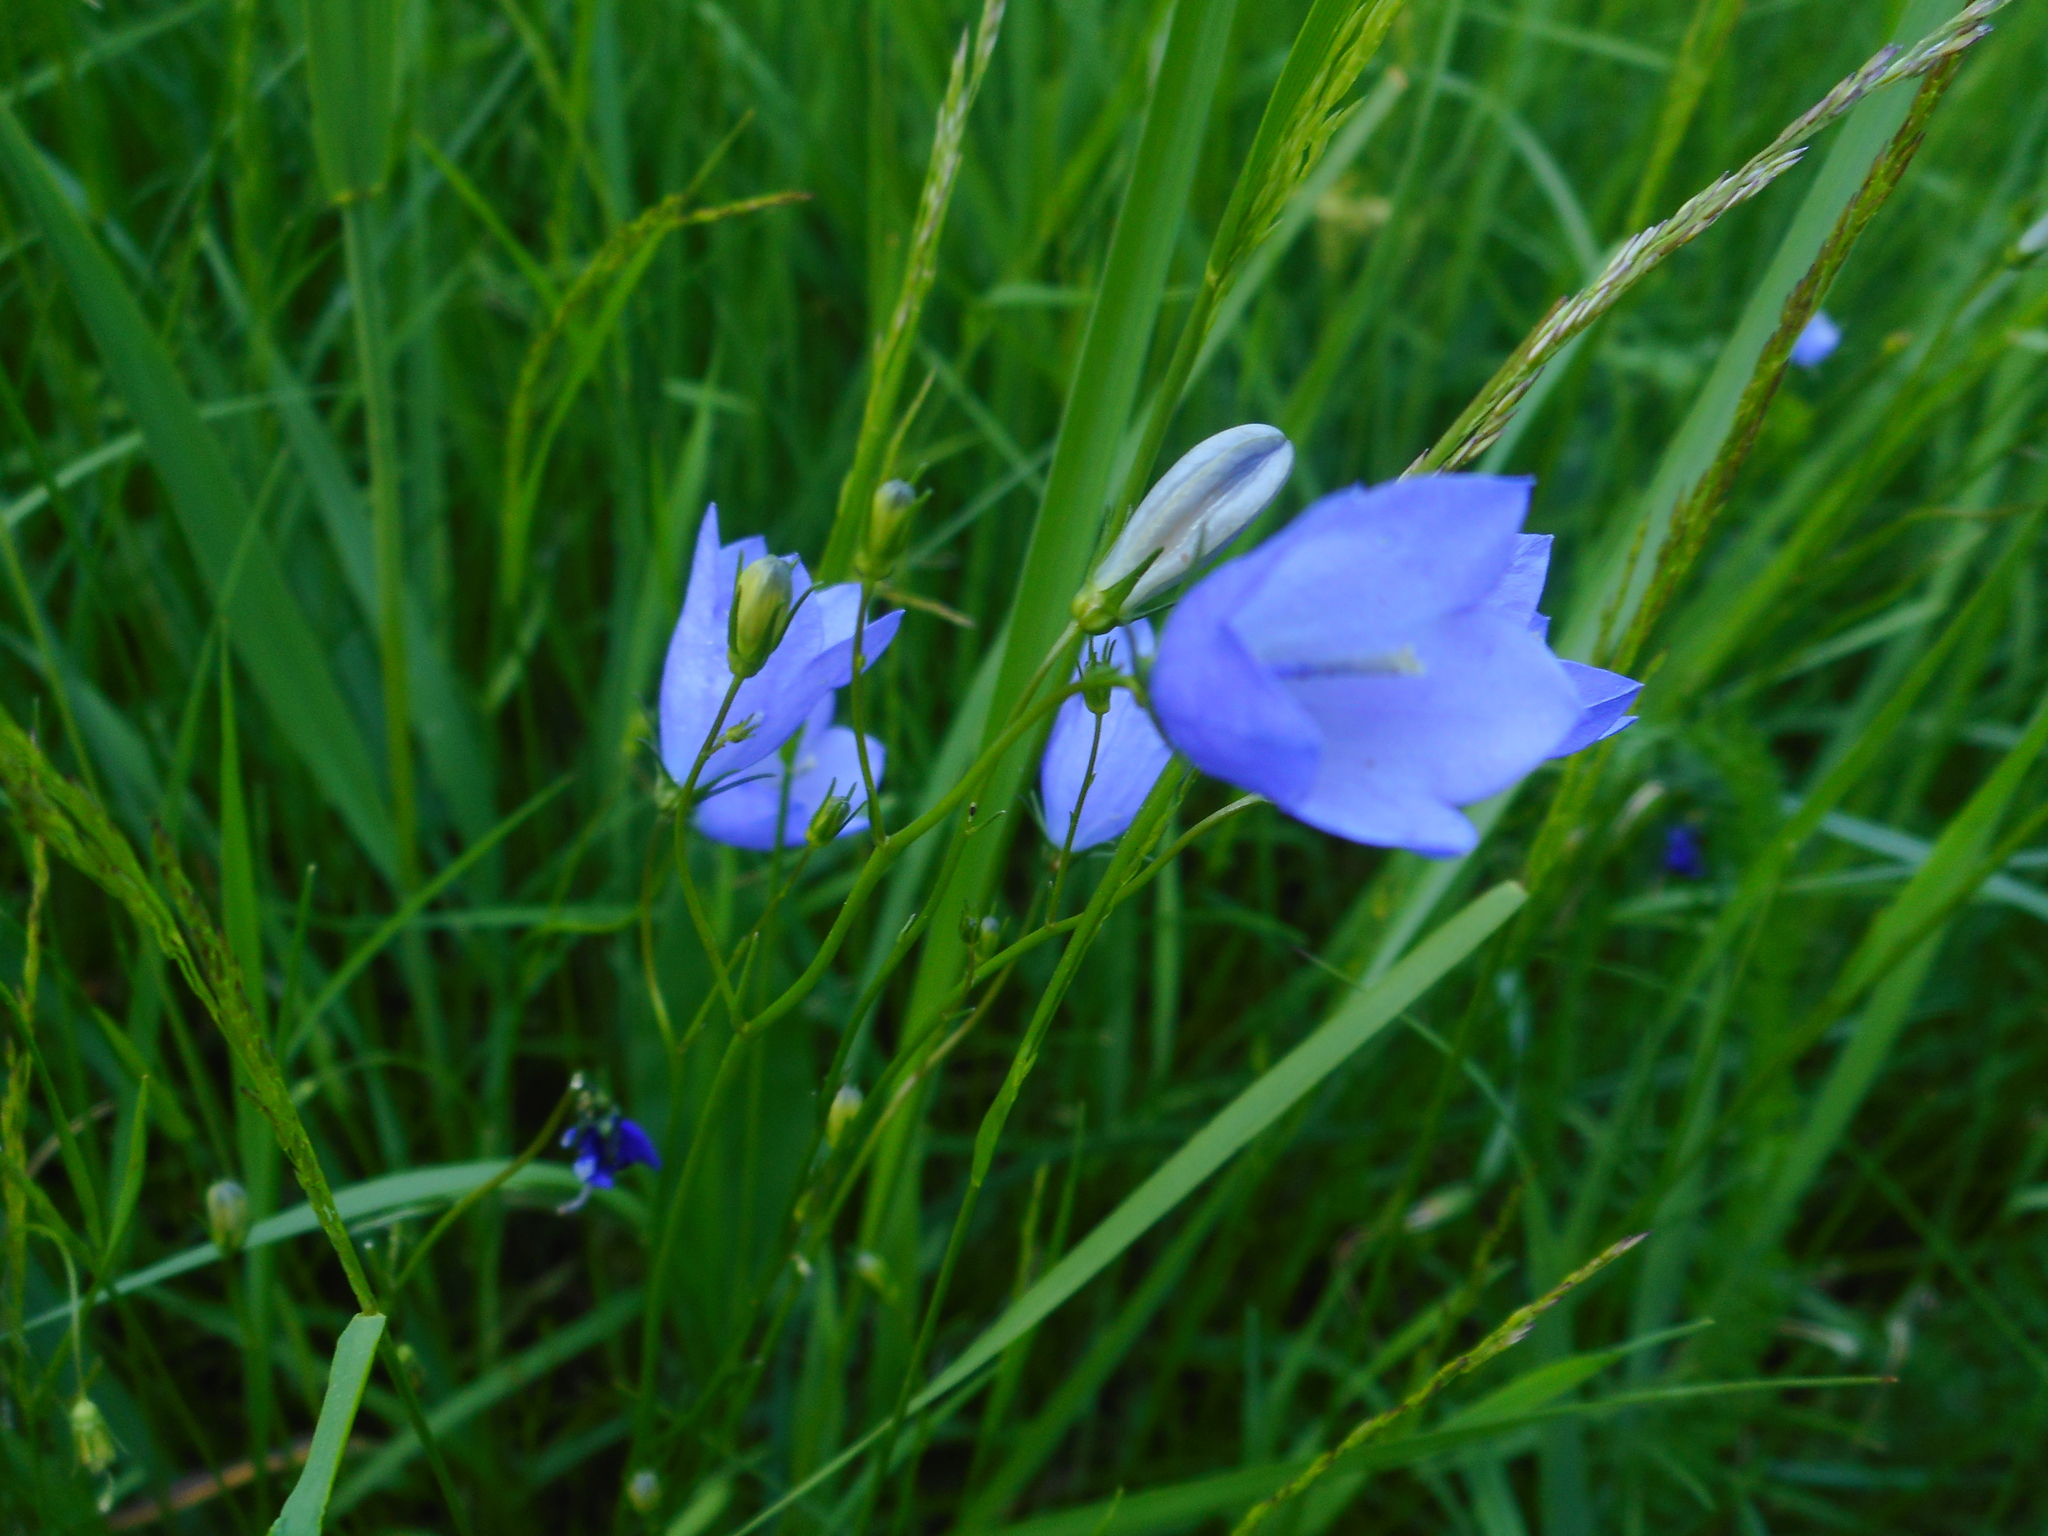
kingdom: Plantae
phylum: Tracheophyta
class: Magnoliopsida
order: Asterales
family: Campanulaceae
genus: Campanula
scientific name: Campanula rotundifolia
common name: Harebell
